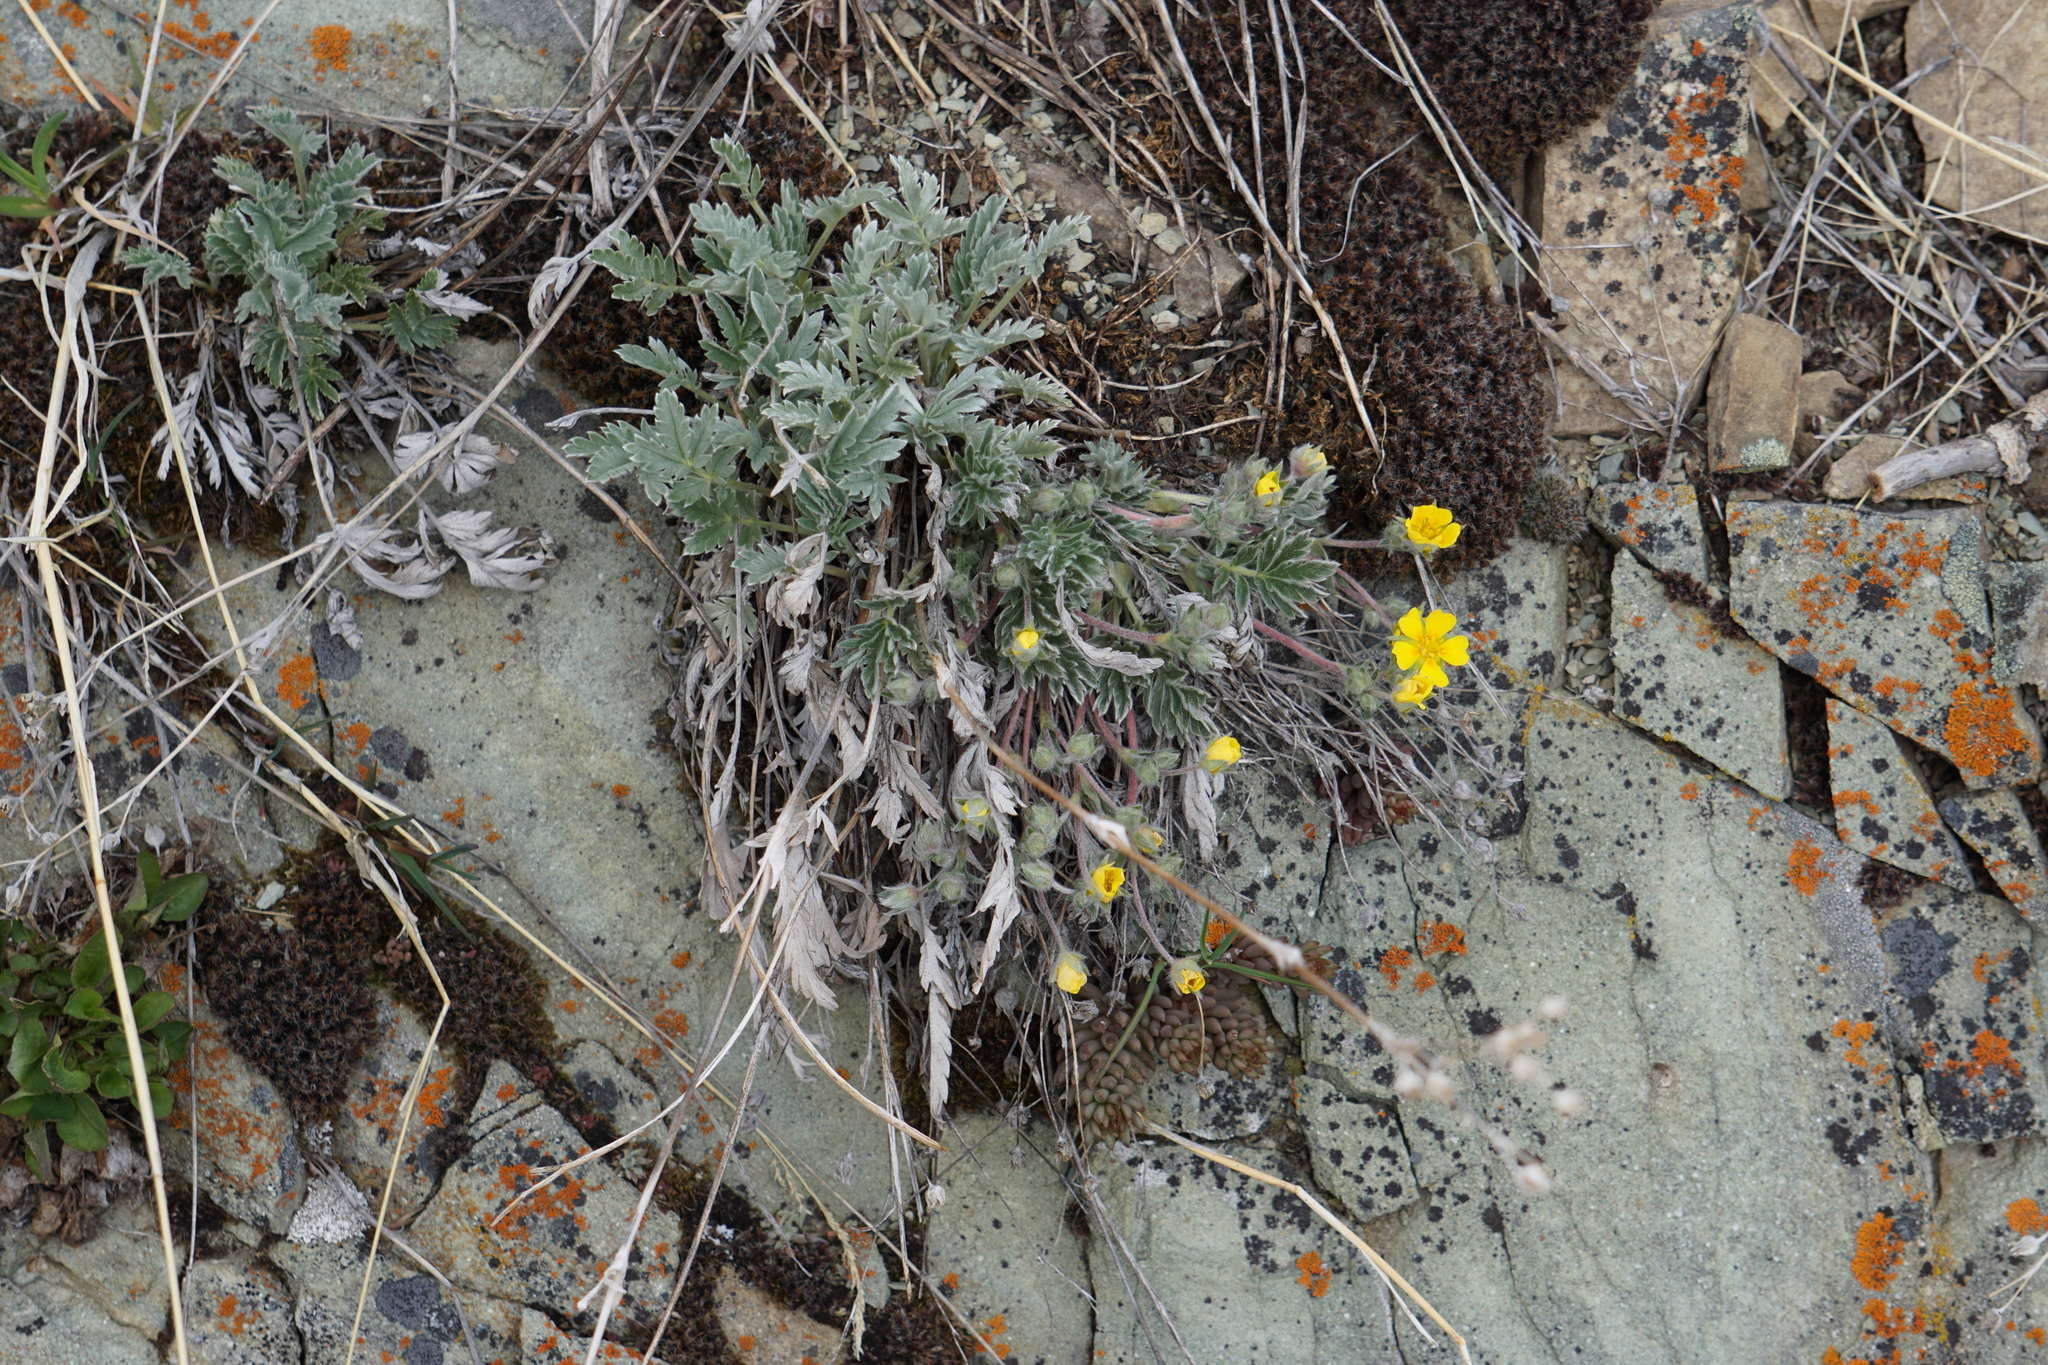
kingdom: Plantae
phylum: Tracheophyta
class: Magnoliopsida
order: Rosales
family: Rosaceae
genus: Potentilla
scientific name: Potentilla concinna
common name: Early cinquefoil
